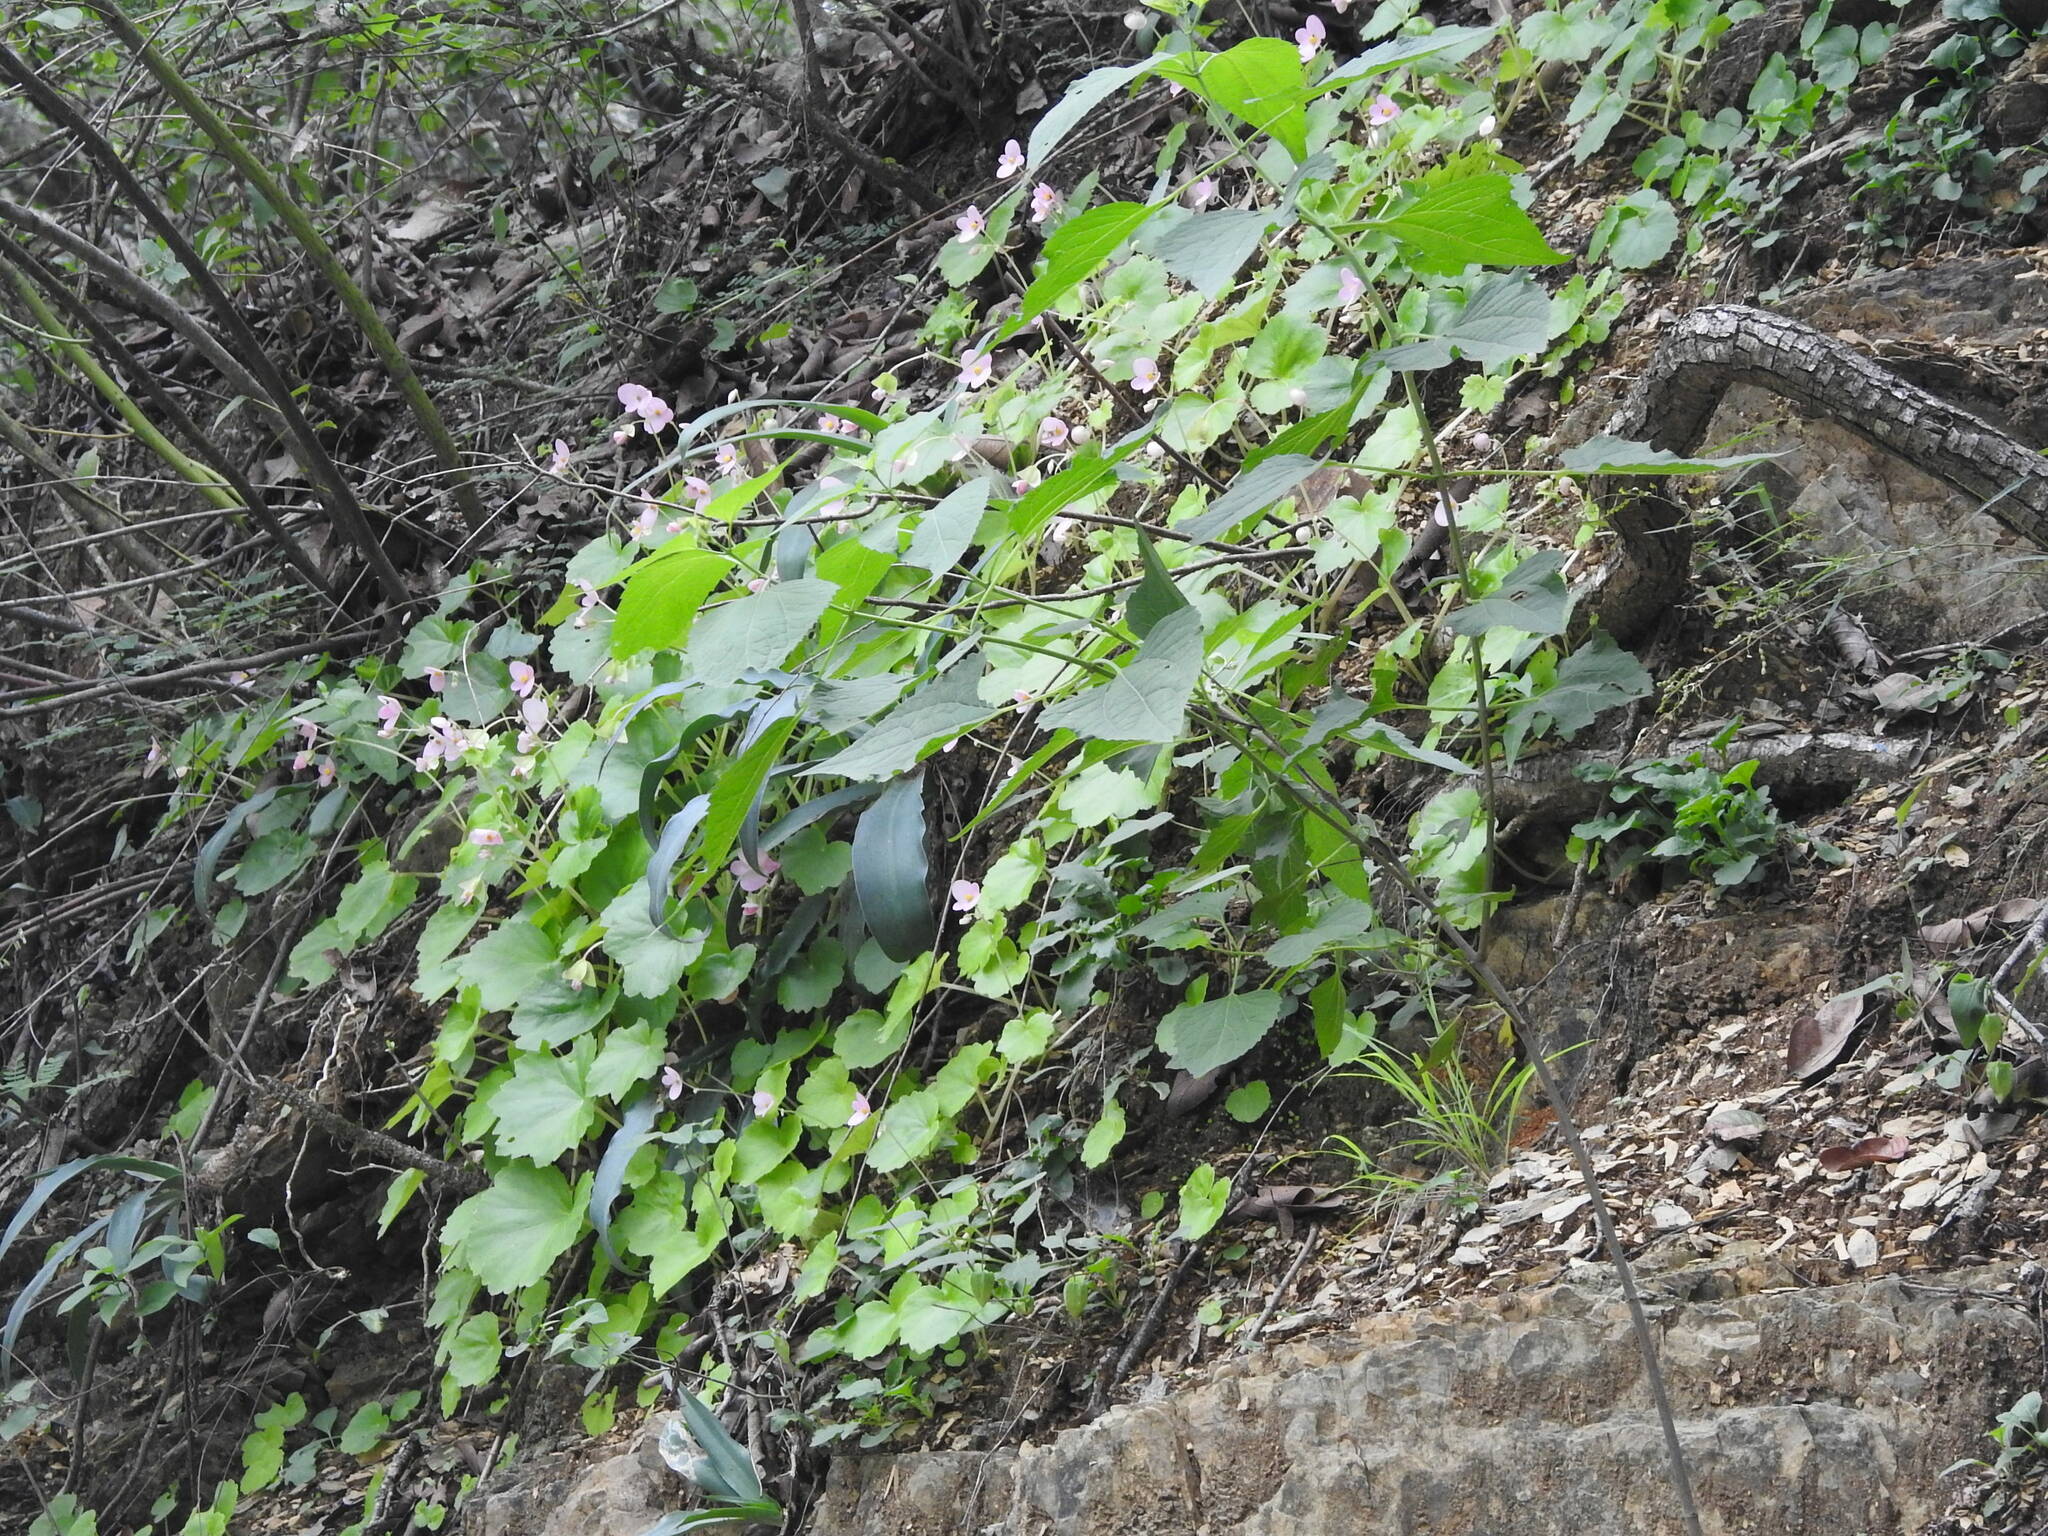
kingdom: Plantae
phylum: Tracheophyta
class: Magnoliopsida
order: Cucurbitales
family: Begoniaceae
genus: Begonia
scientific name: Begonia uniflora
